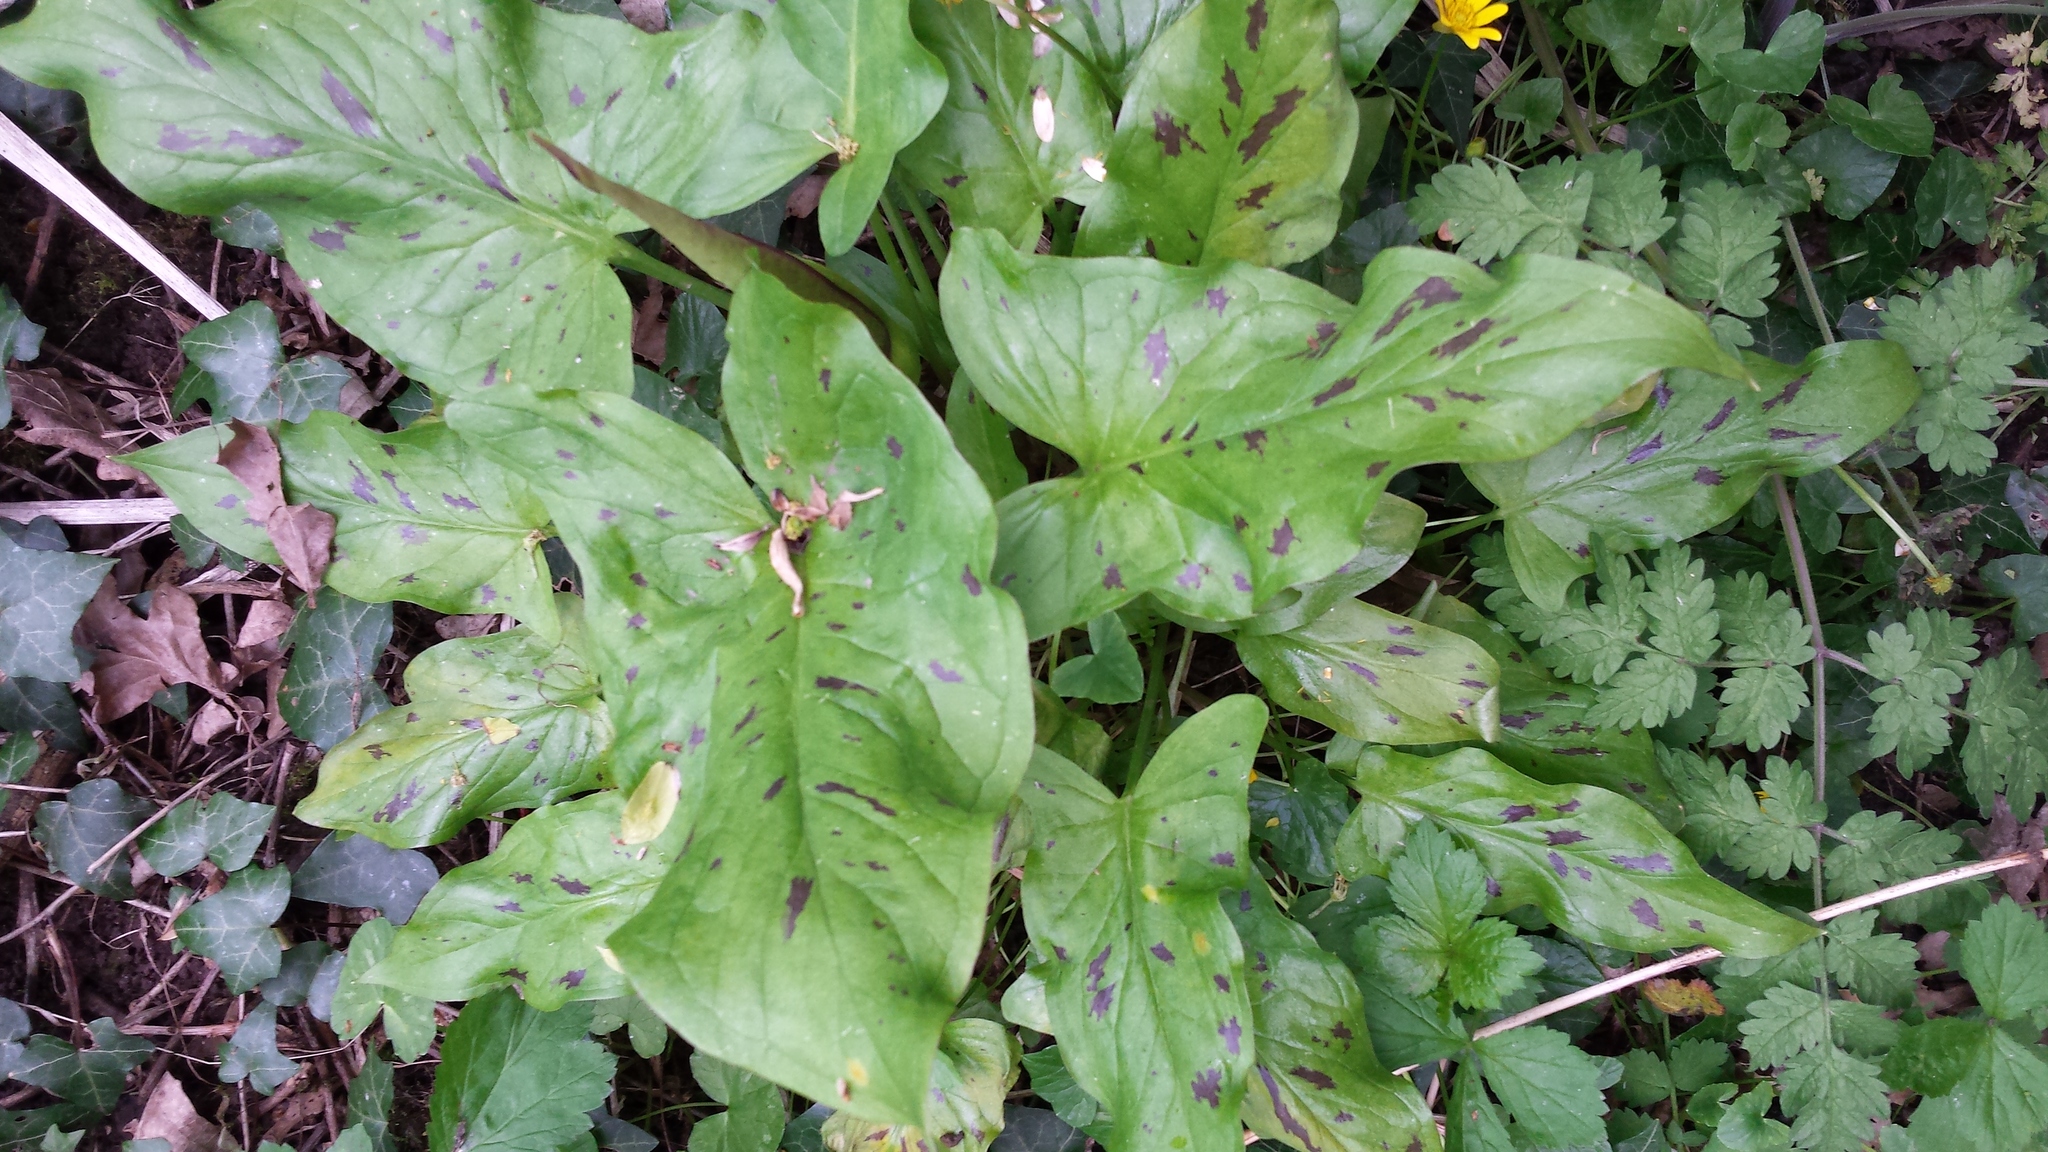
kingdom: Plantae
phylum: Tracheophyta
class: Liliopsida
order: Alismatales
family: Araceae
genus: Arum
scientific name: Arum maculatum
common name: Lords-and-ladies
